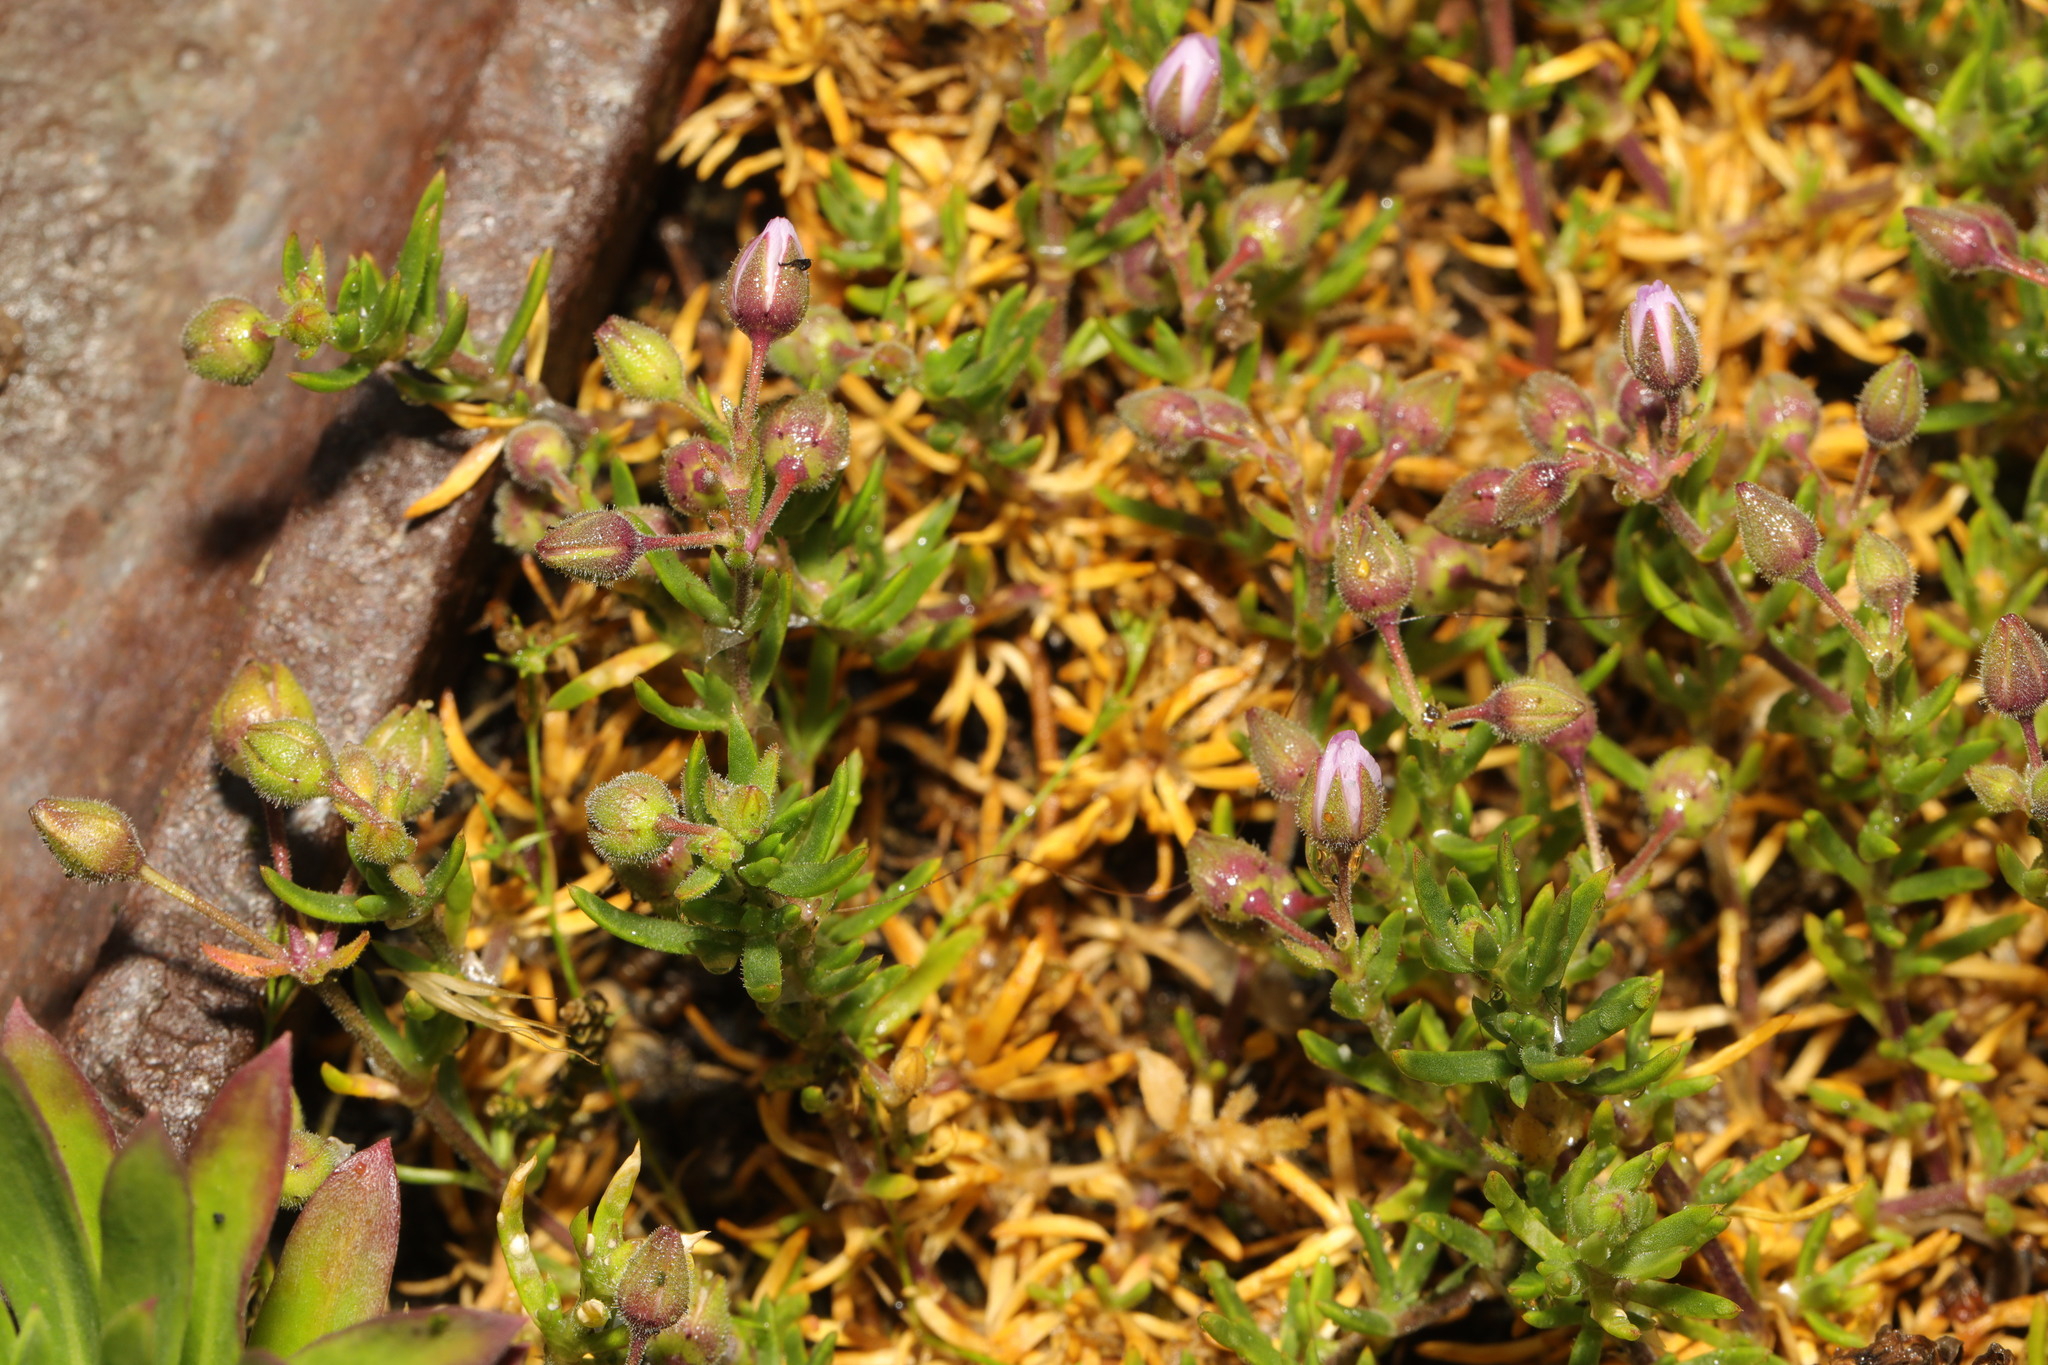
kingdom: Plantae
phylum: Tracheophyta
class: Magnoliopsida
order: Caryophyllales
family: Caryophyllaceae
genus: Spergularia
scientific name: Spergularia media
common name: Greater sea-spurrey
